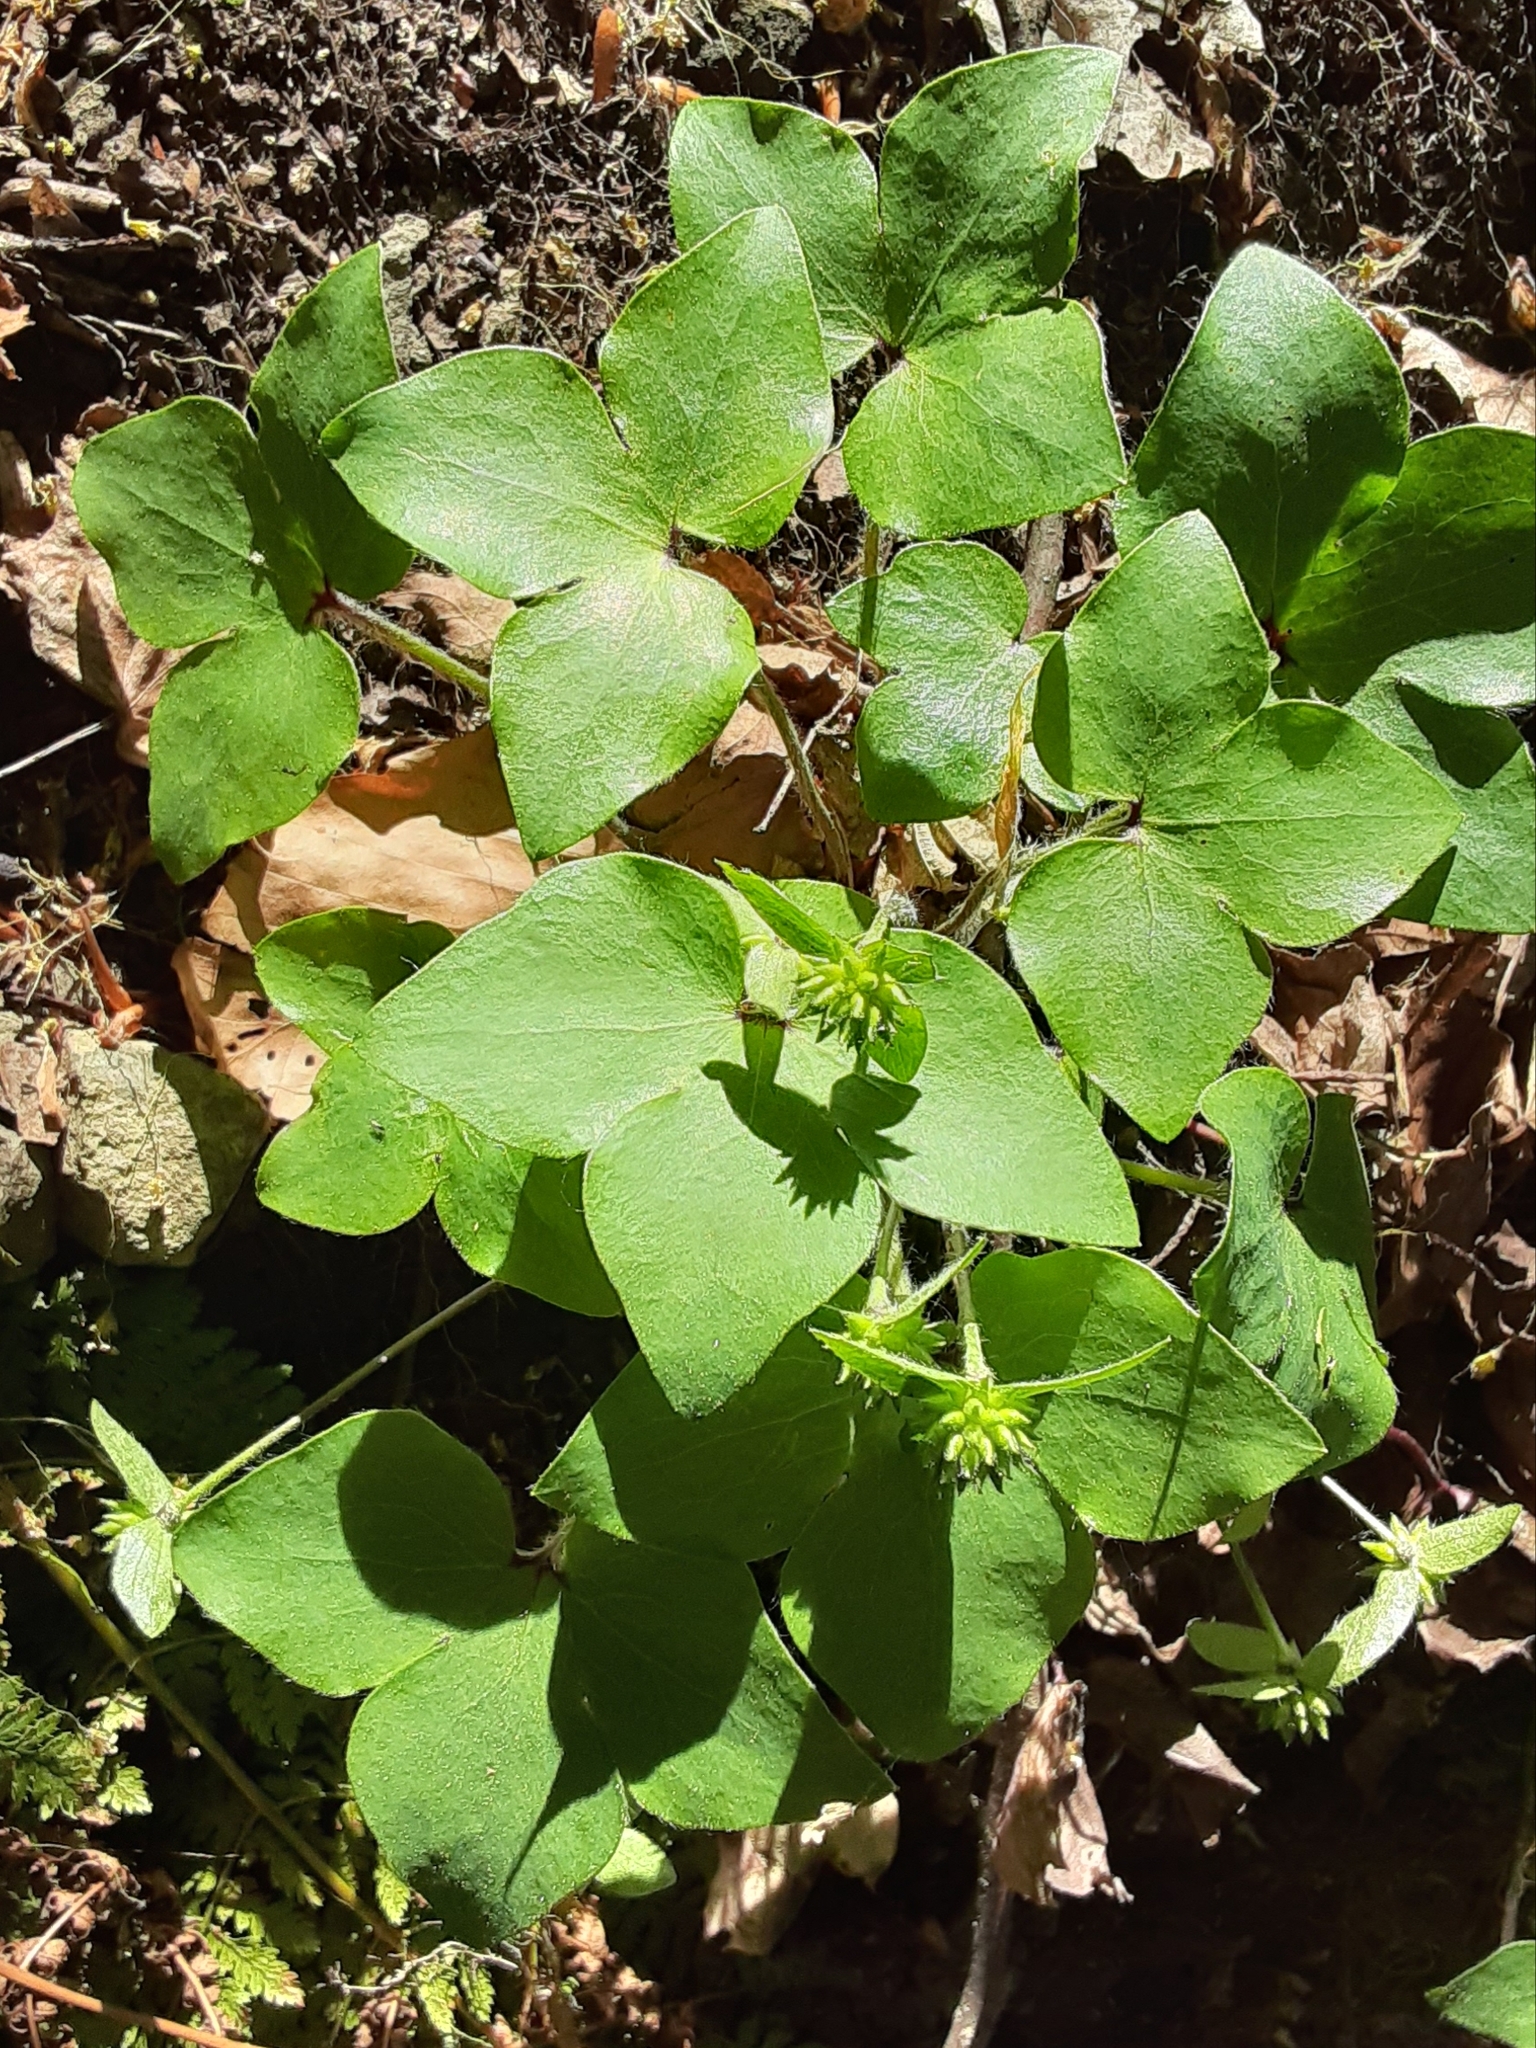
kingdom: Plantae
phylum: Tracheophyta
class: Magnoliopsida
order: Ranunculales
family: Ranunculaceae
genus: Hepatica
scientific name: Hepatica acutiloba
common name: Sharp-lobed hepatica
